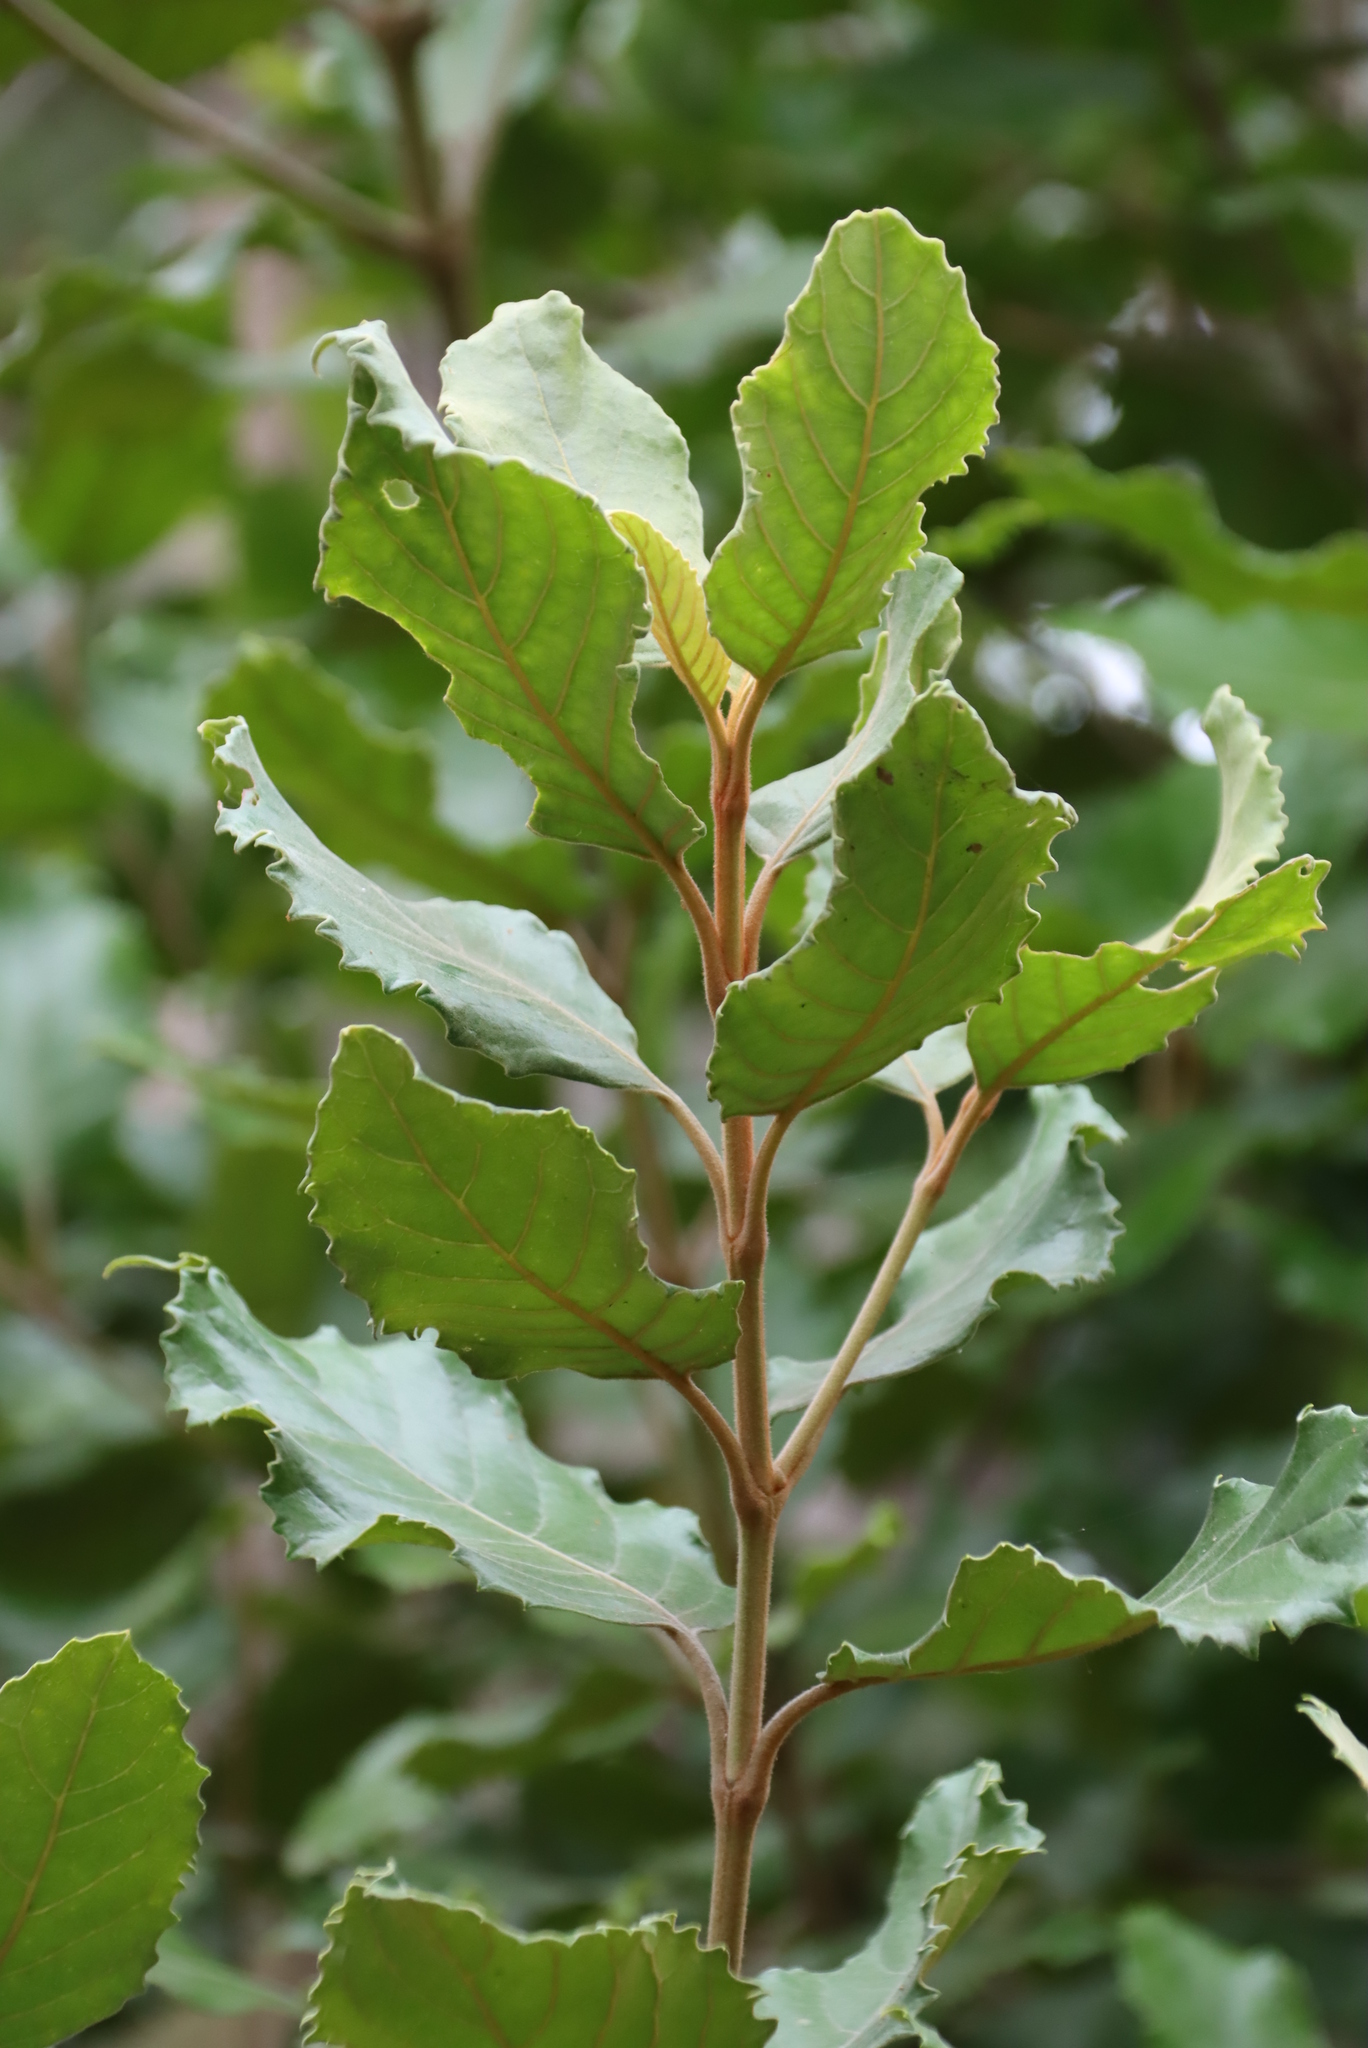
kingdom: Plantae
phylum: Tracheophyta
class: Magnoliopsida
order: Cornales
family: Curtisiaceae
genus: Curtisia
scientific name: Curtisia dentata
